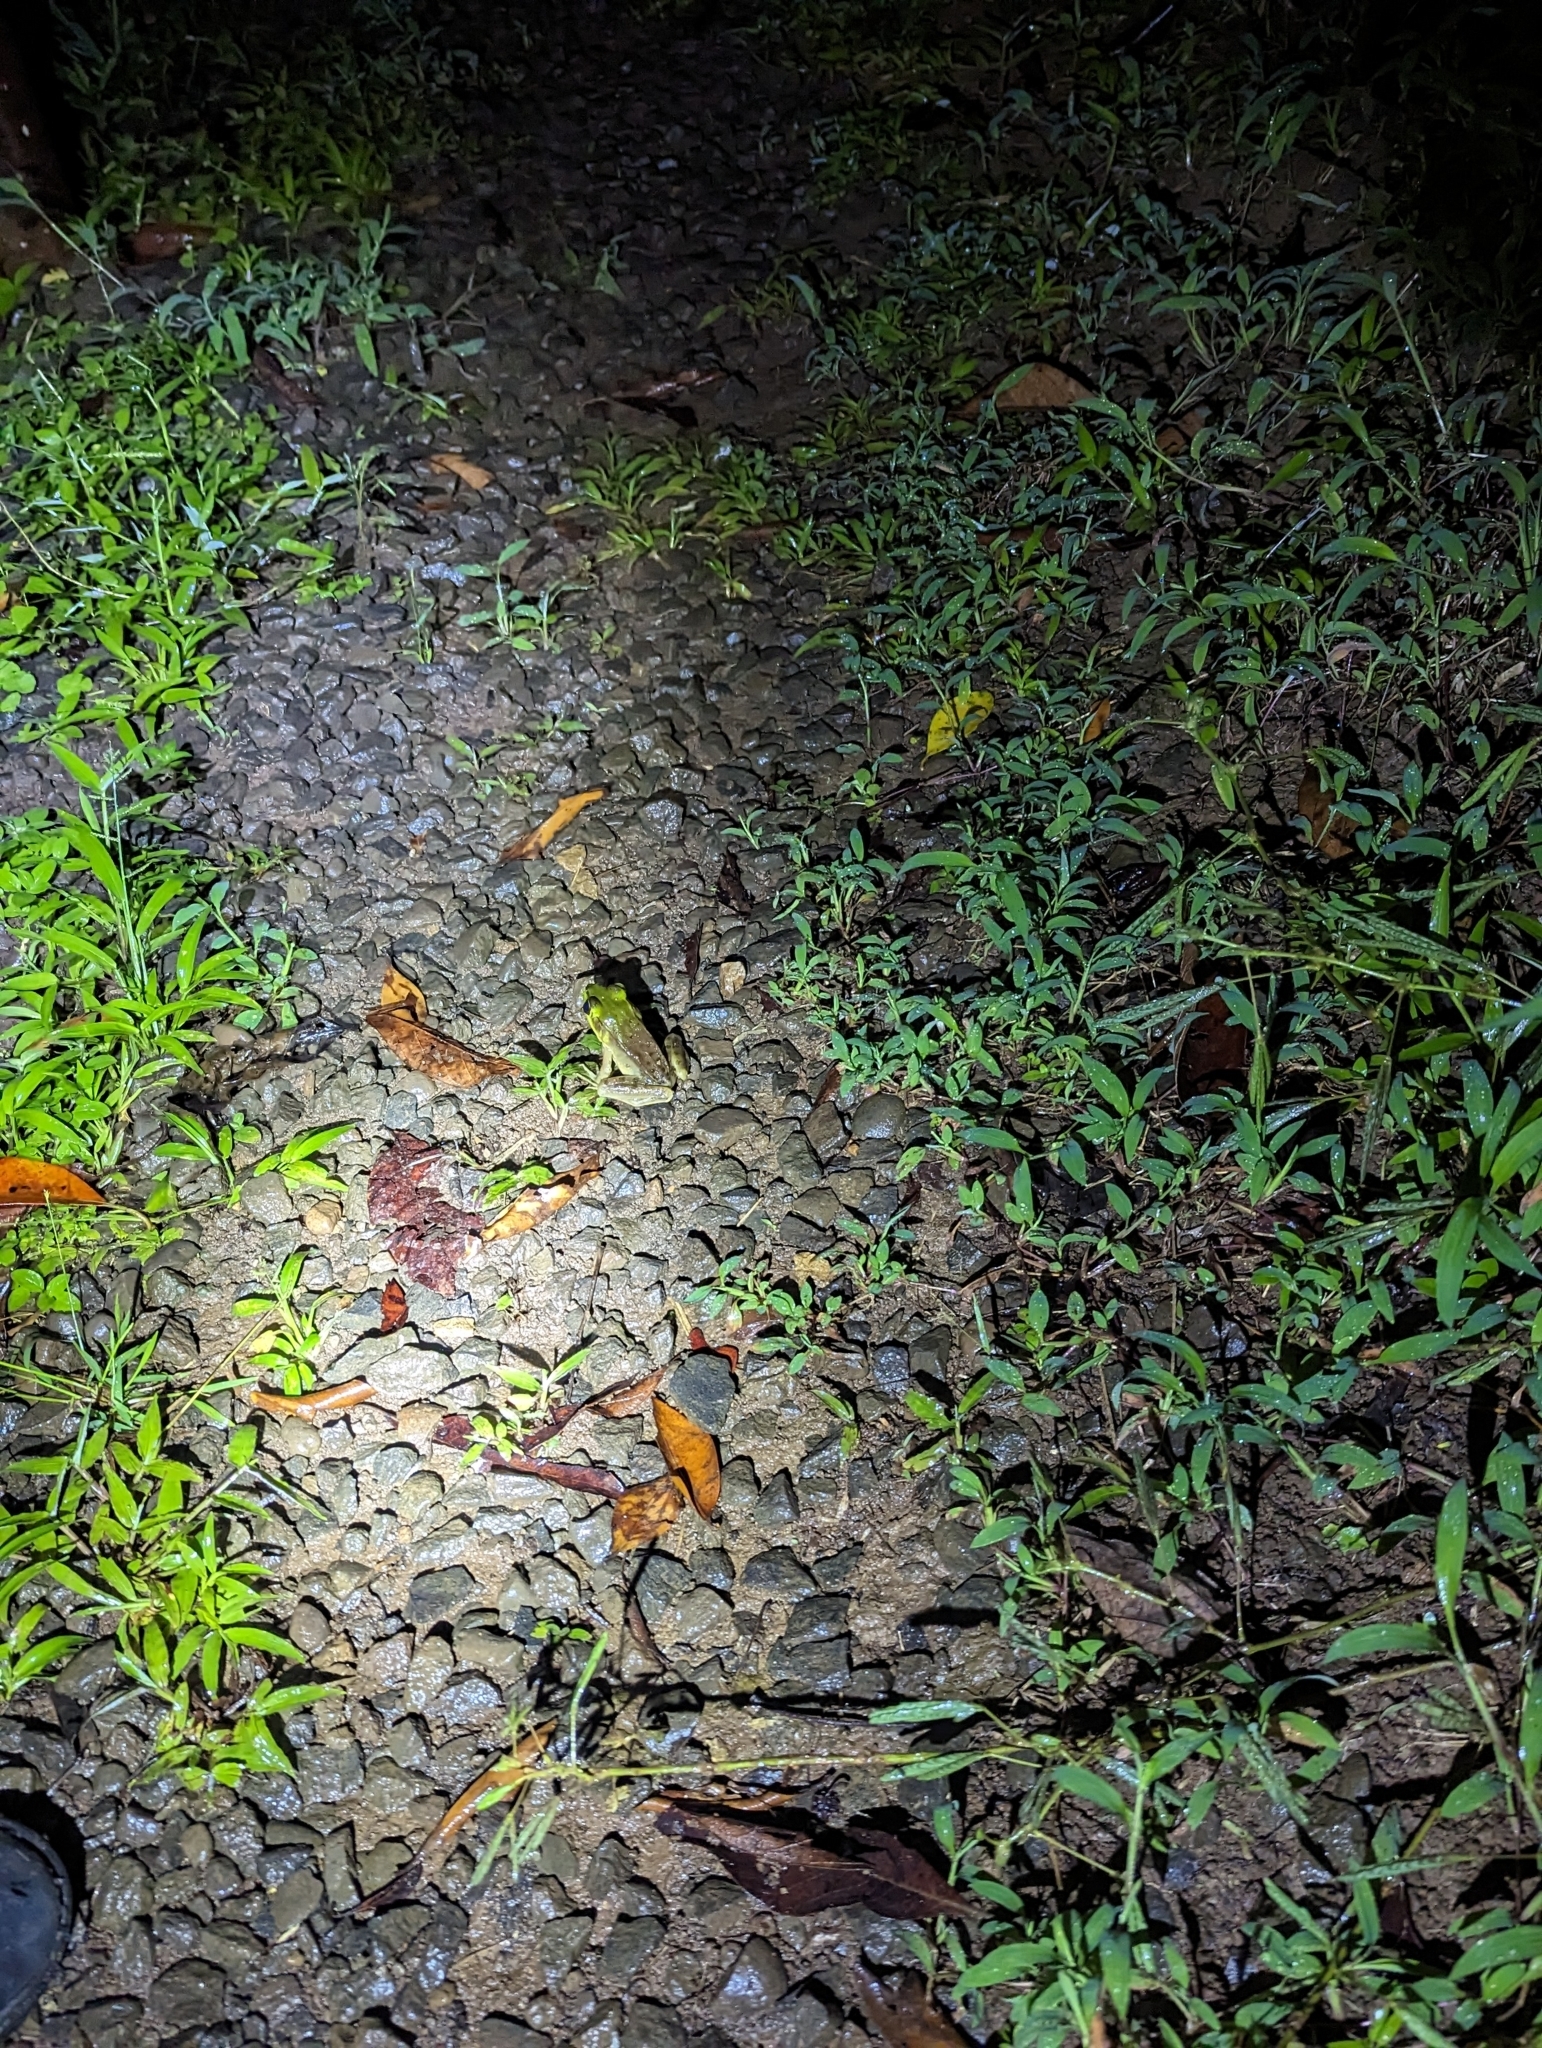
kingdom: Animalia
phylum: Chordata
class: Amphibia
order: Anura
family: Ranidae
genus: Lithobates
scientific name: Lithobates vaillanti
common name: Vaillant's frog
